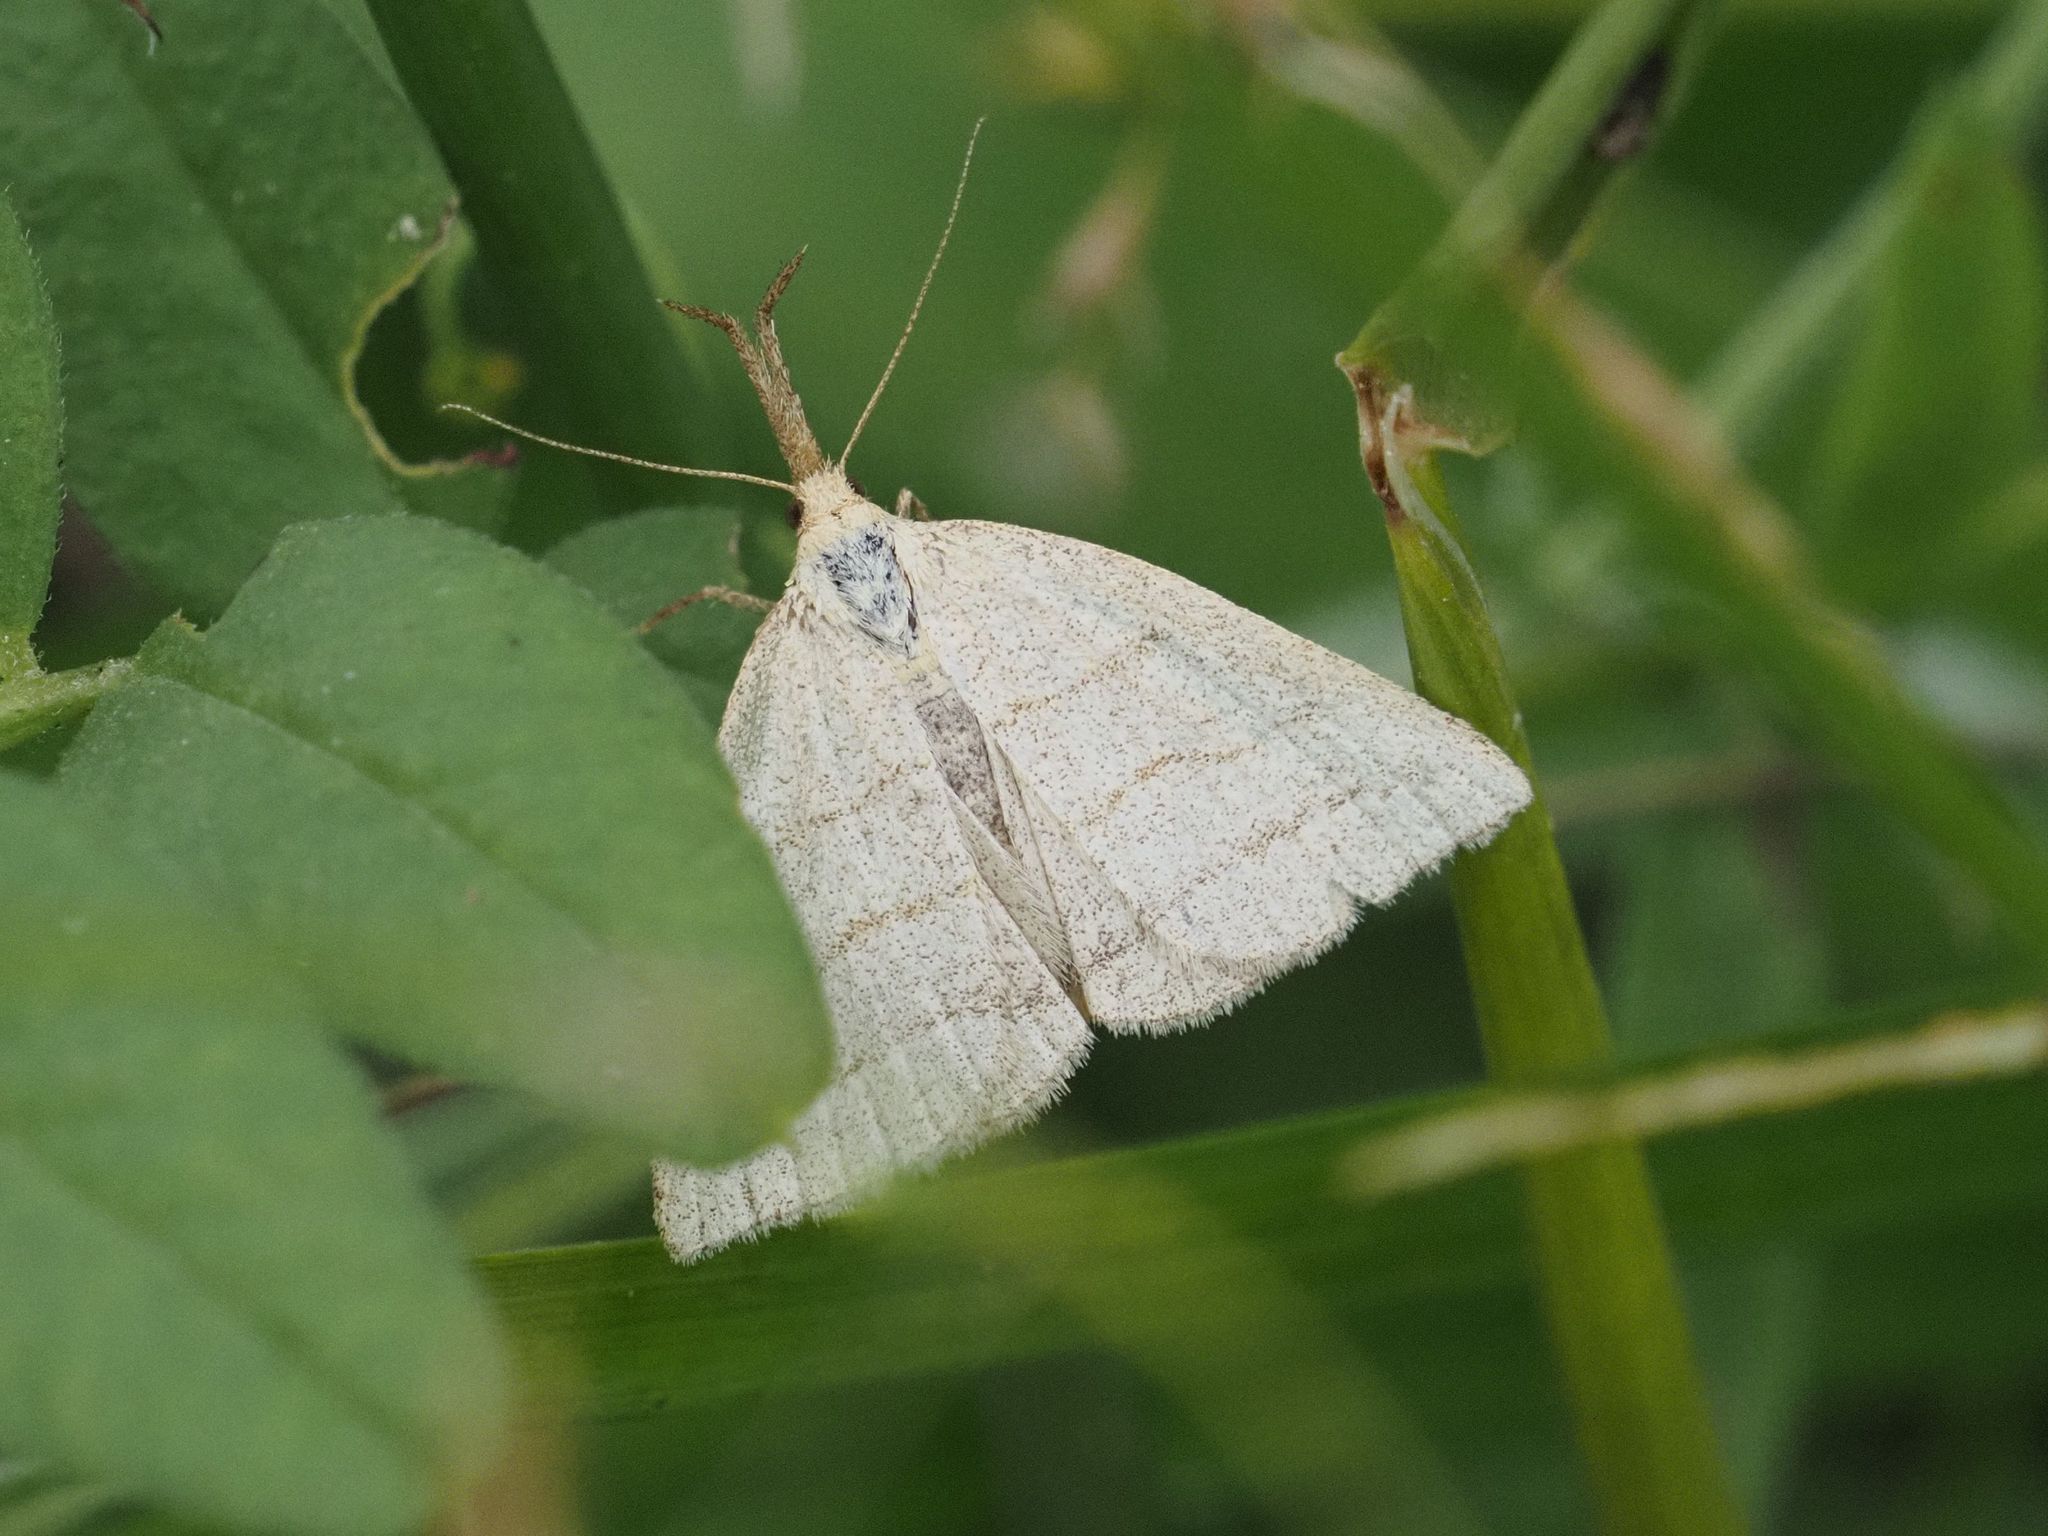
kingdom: Animalia
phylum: Arthropoda
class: Insecta
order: Lepidoptera
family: Erebidae
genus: Polypogon
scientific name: Polypogon tentacularia
